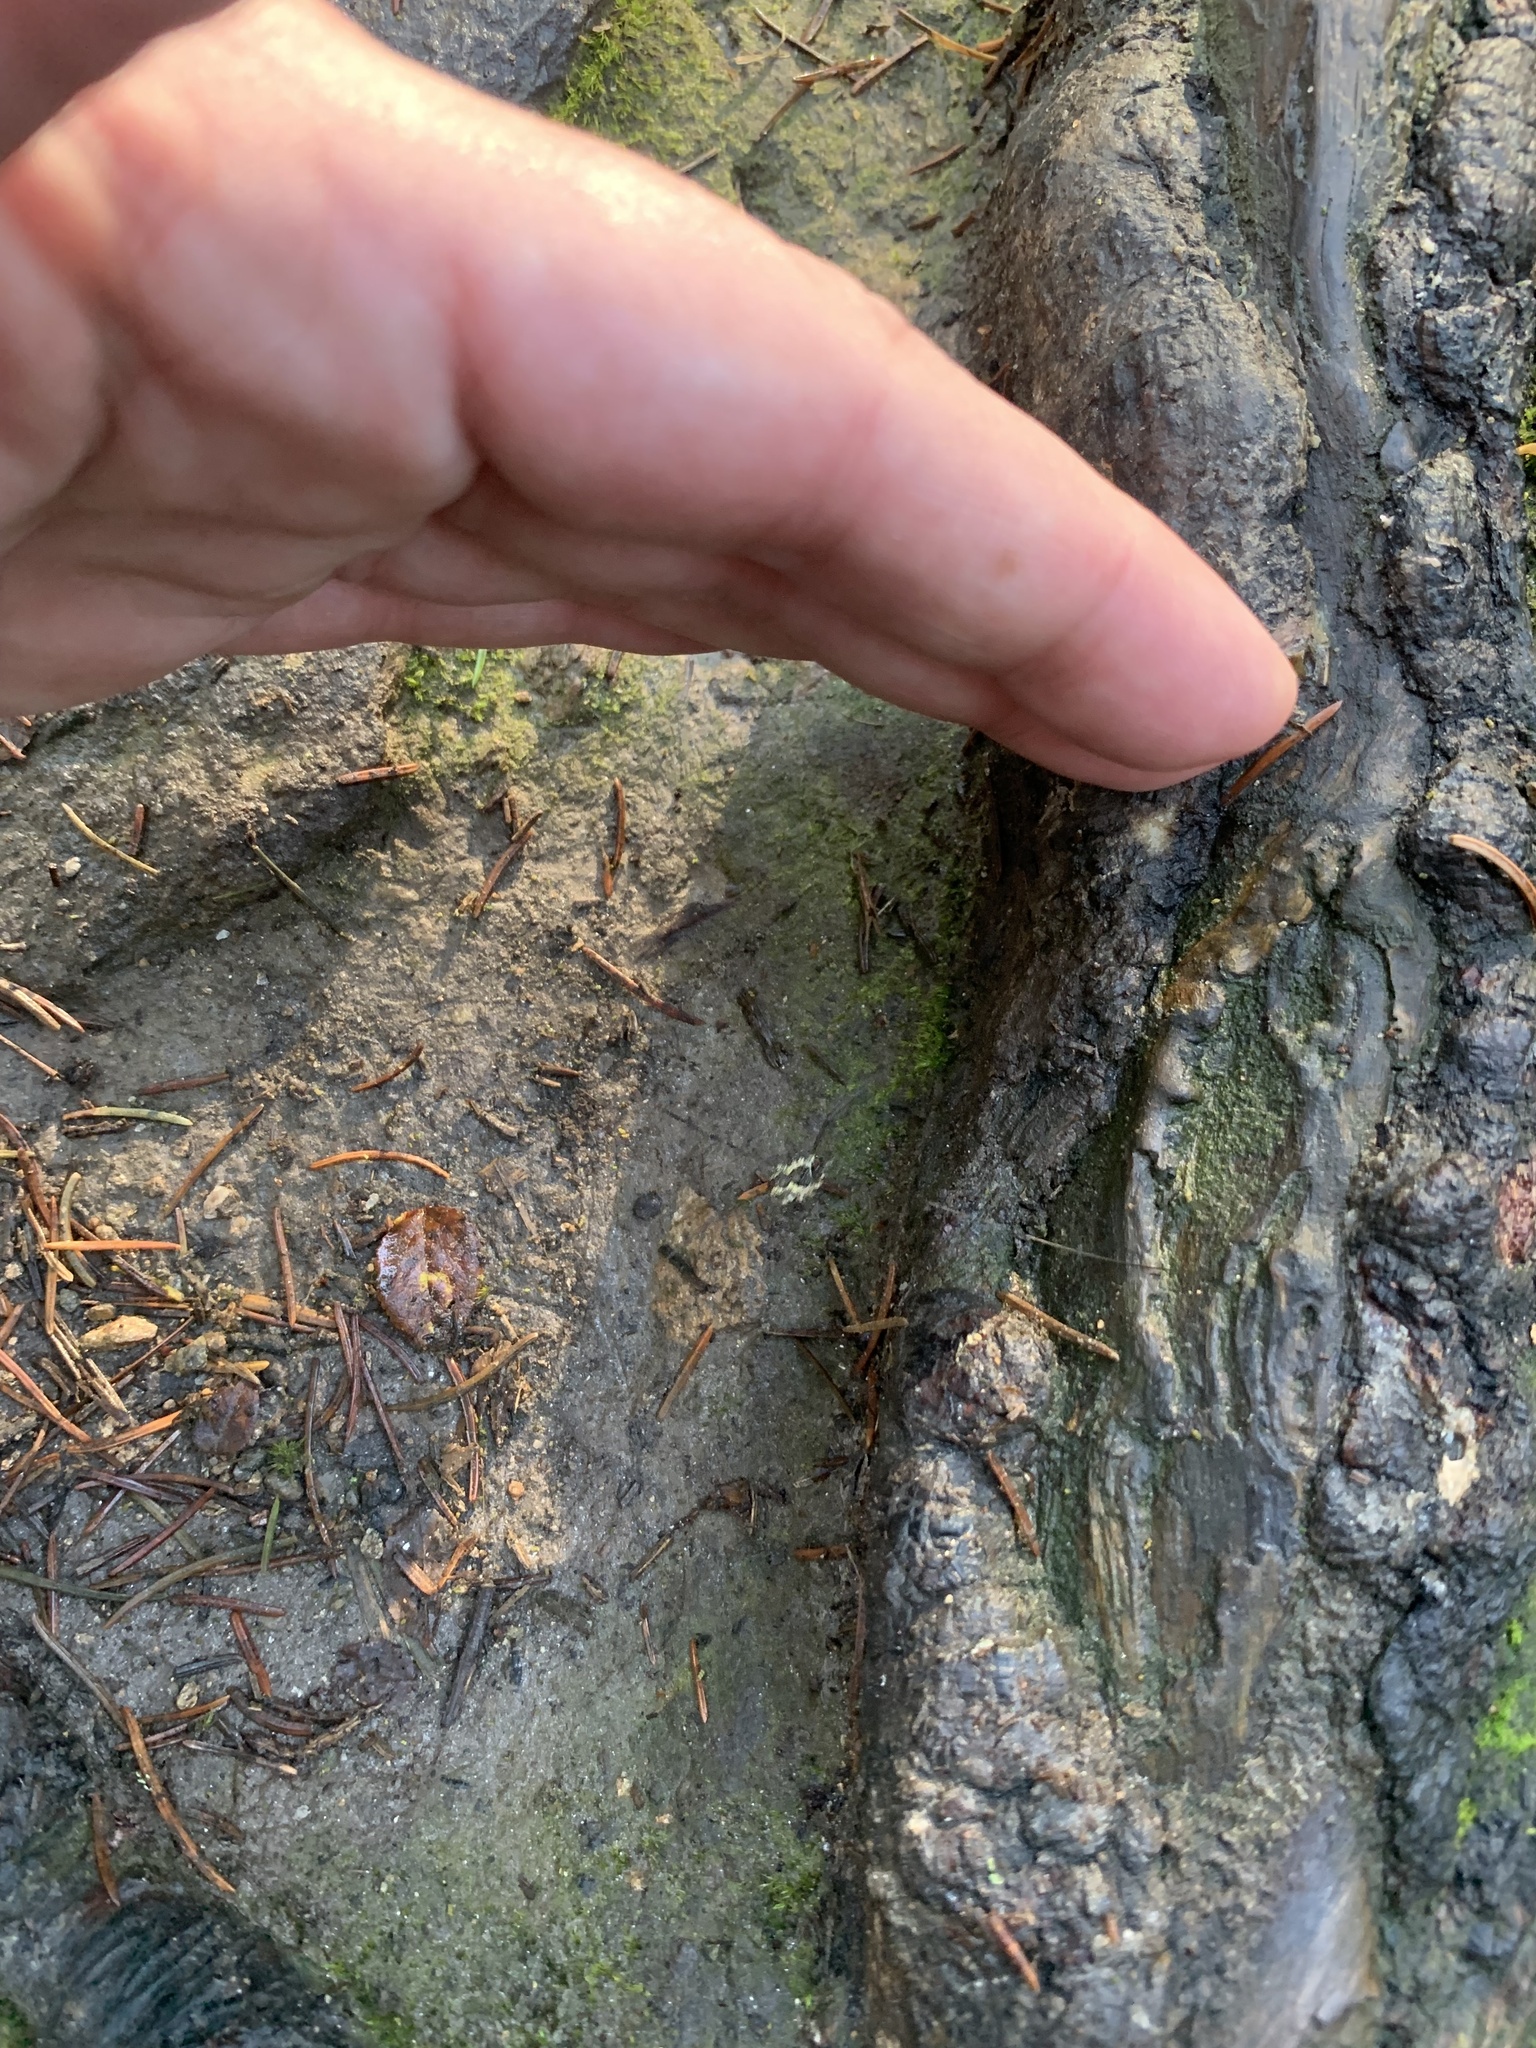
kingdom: Animalia
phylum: Arthropoda
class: Arachnida
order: Opiliones
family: Phalangiidae
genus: Mitopus
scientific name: Mitopus morio
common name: Saddleback harvestman
